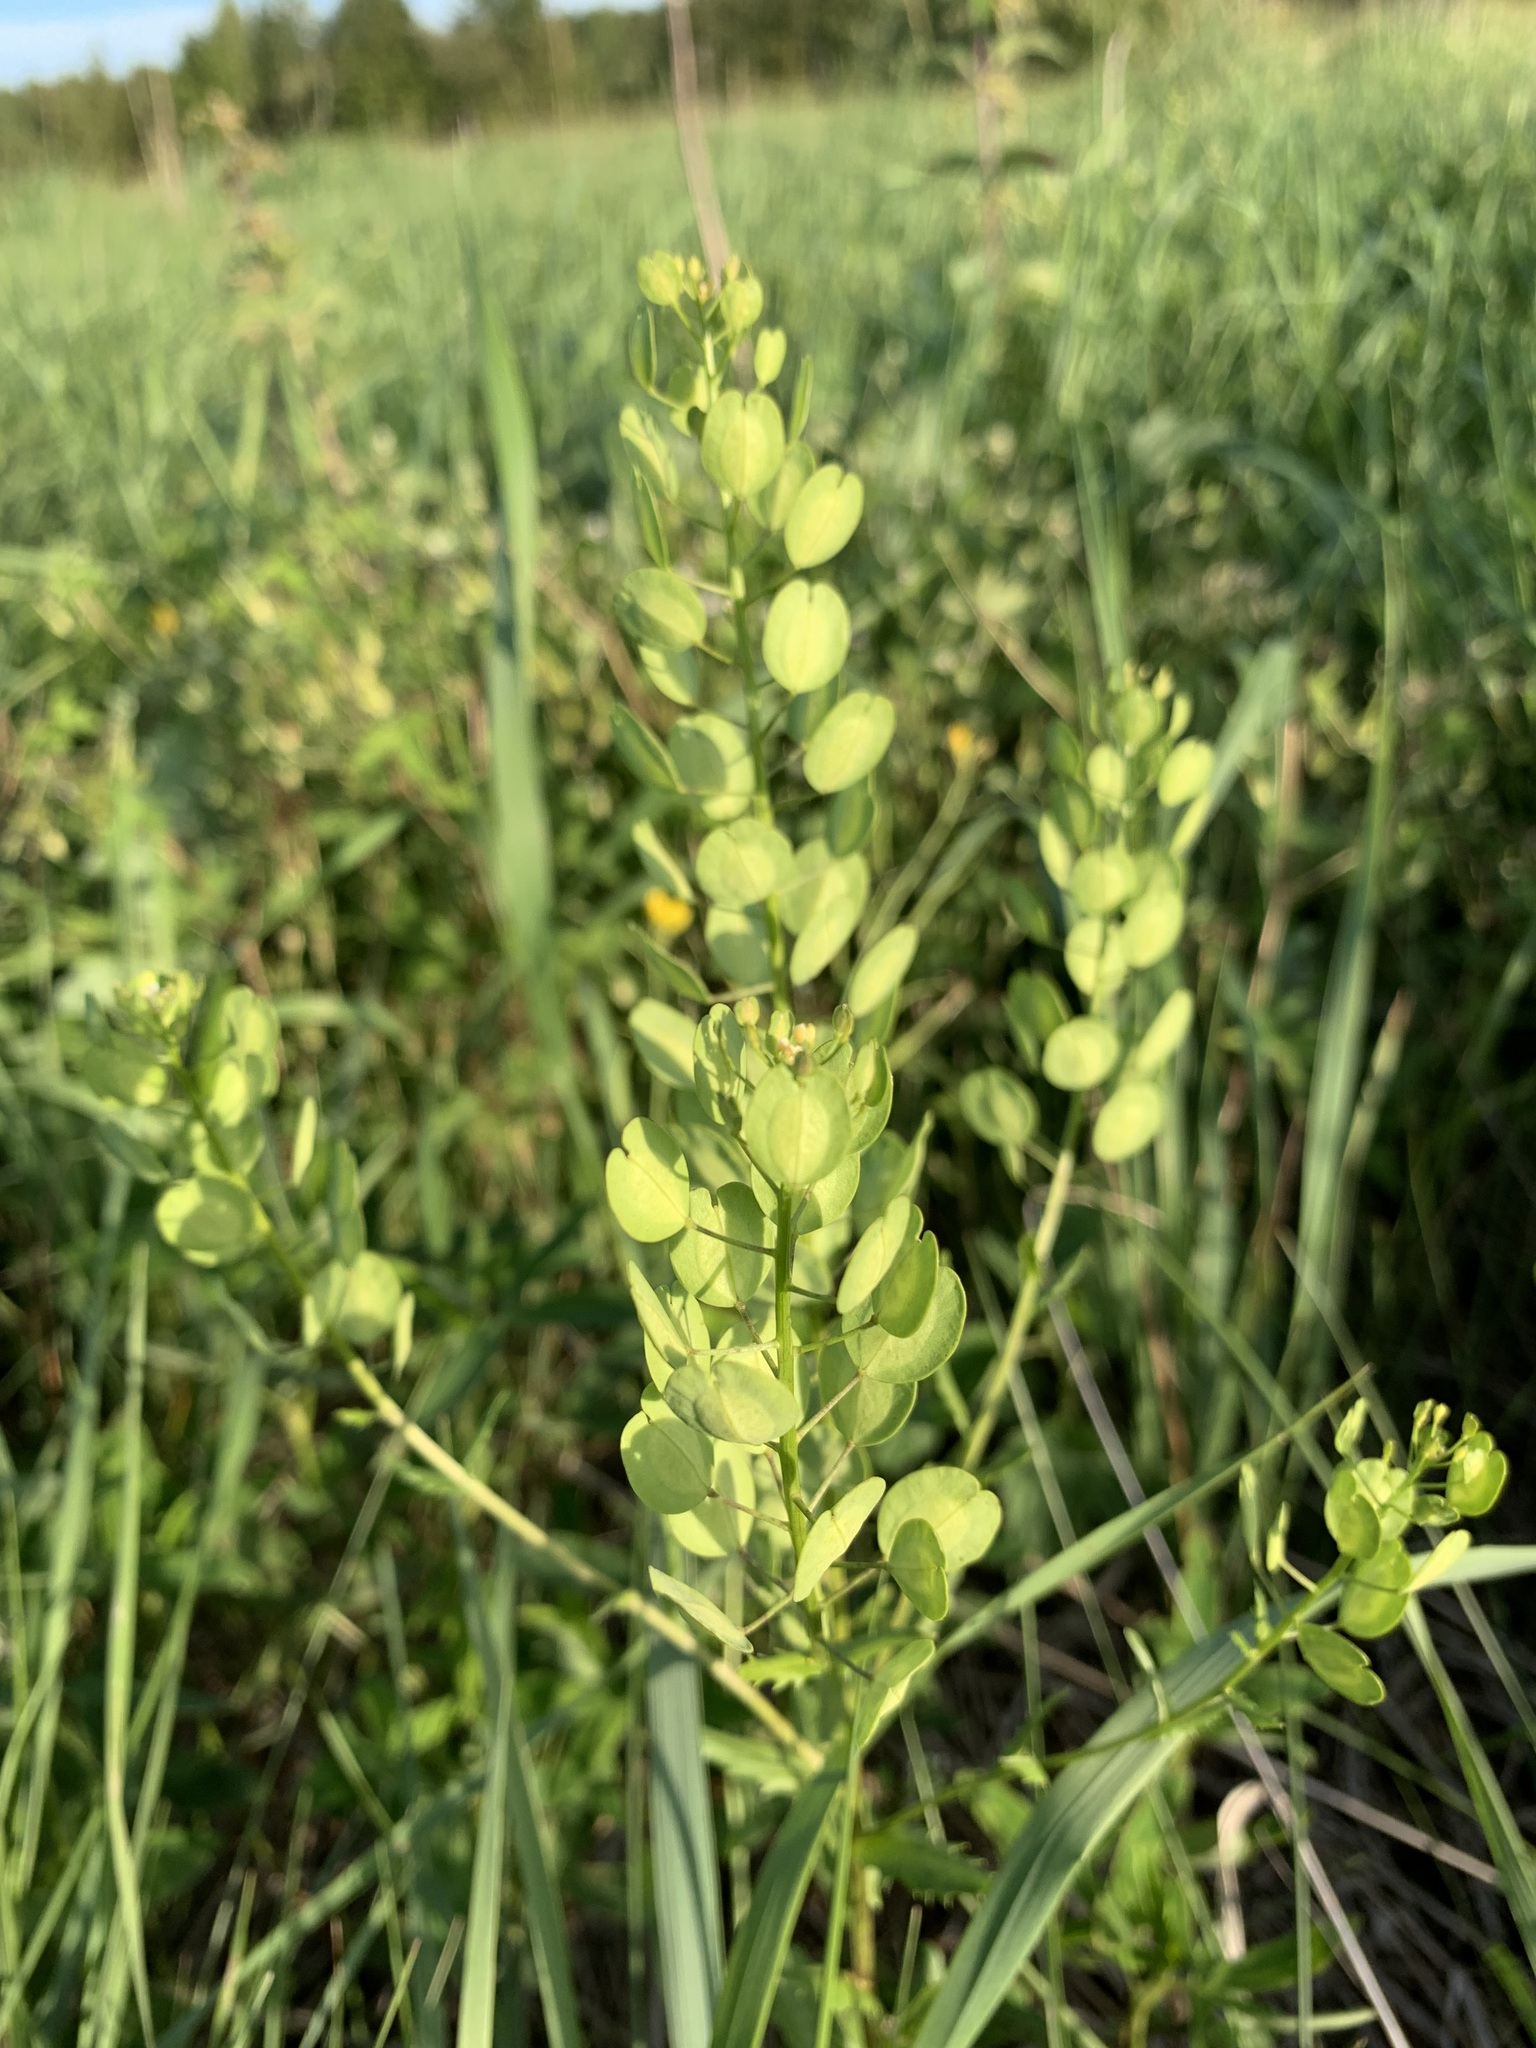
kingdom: Plantae
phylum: Tracheophyta
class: Magnoliopsida
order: Brassicales
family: Brassicaceae
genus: Thlaspi
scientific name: Thlaspi arvense
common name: Field pennycress
